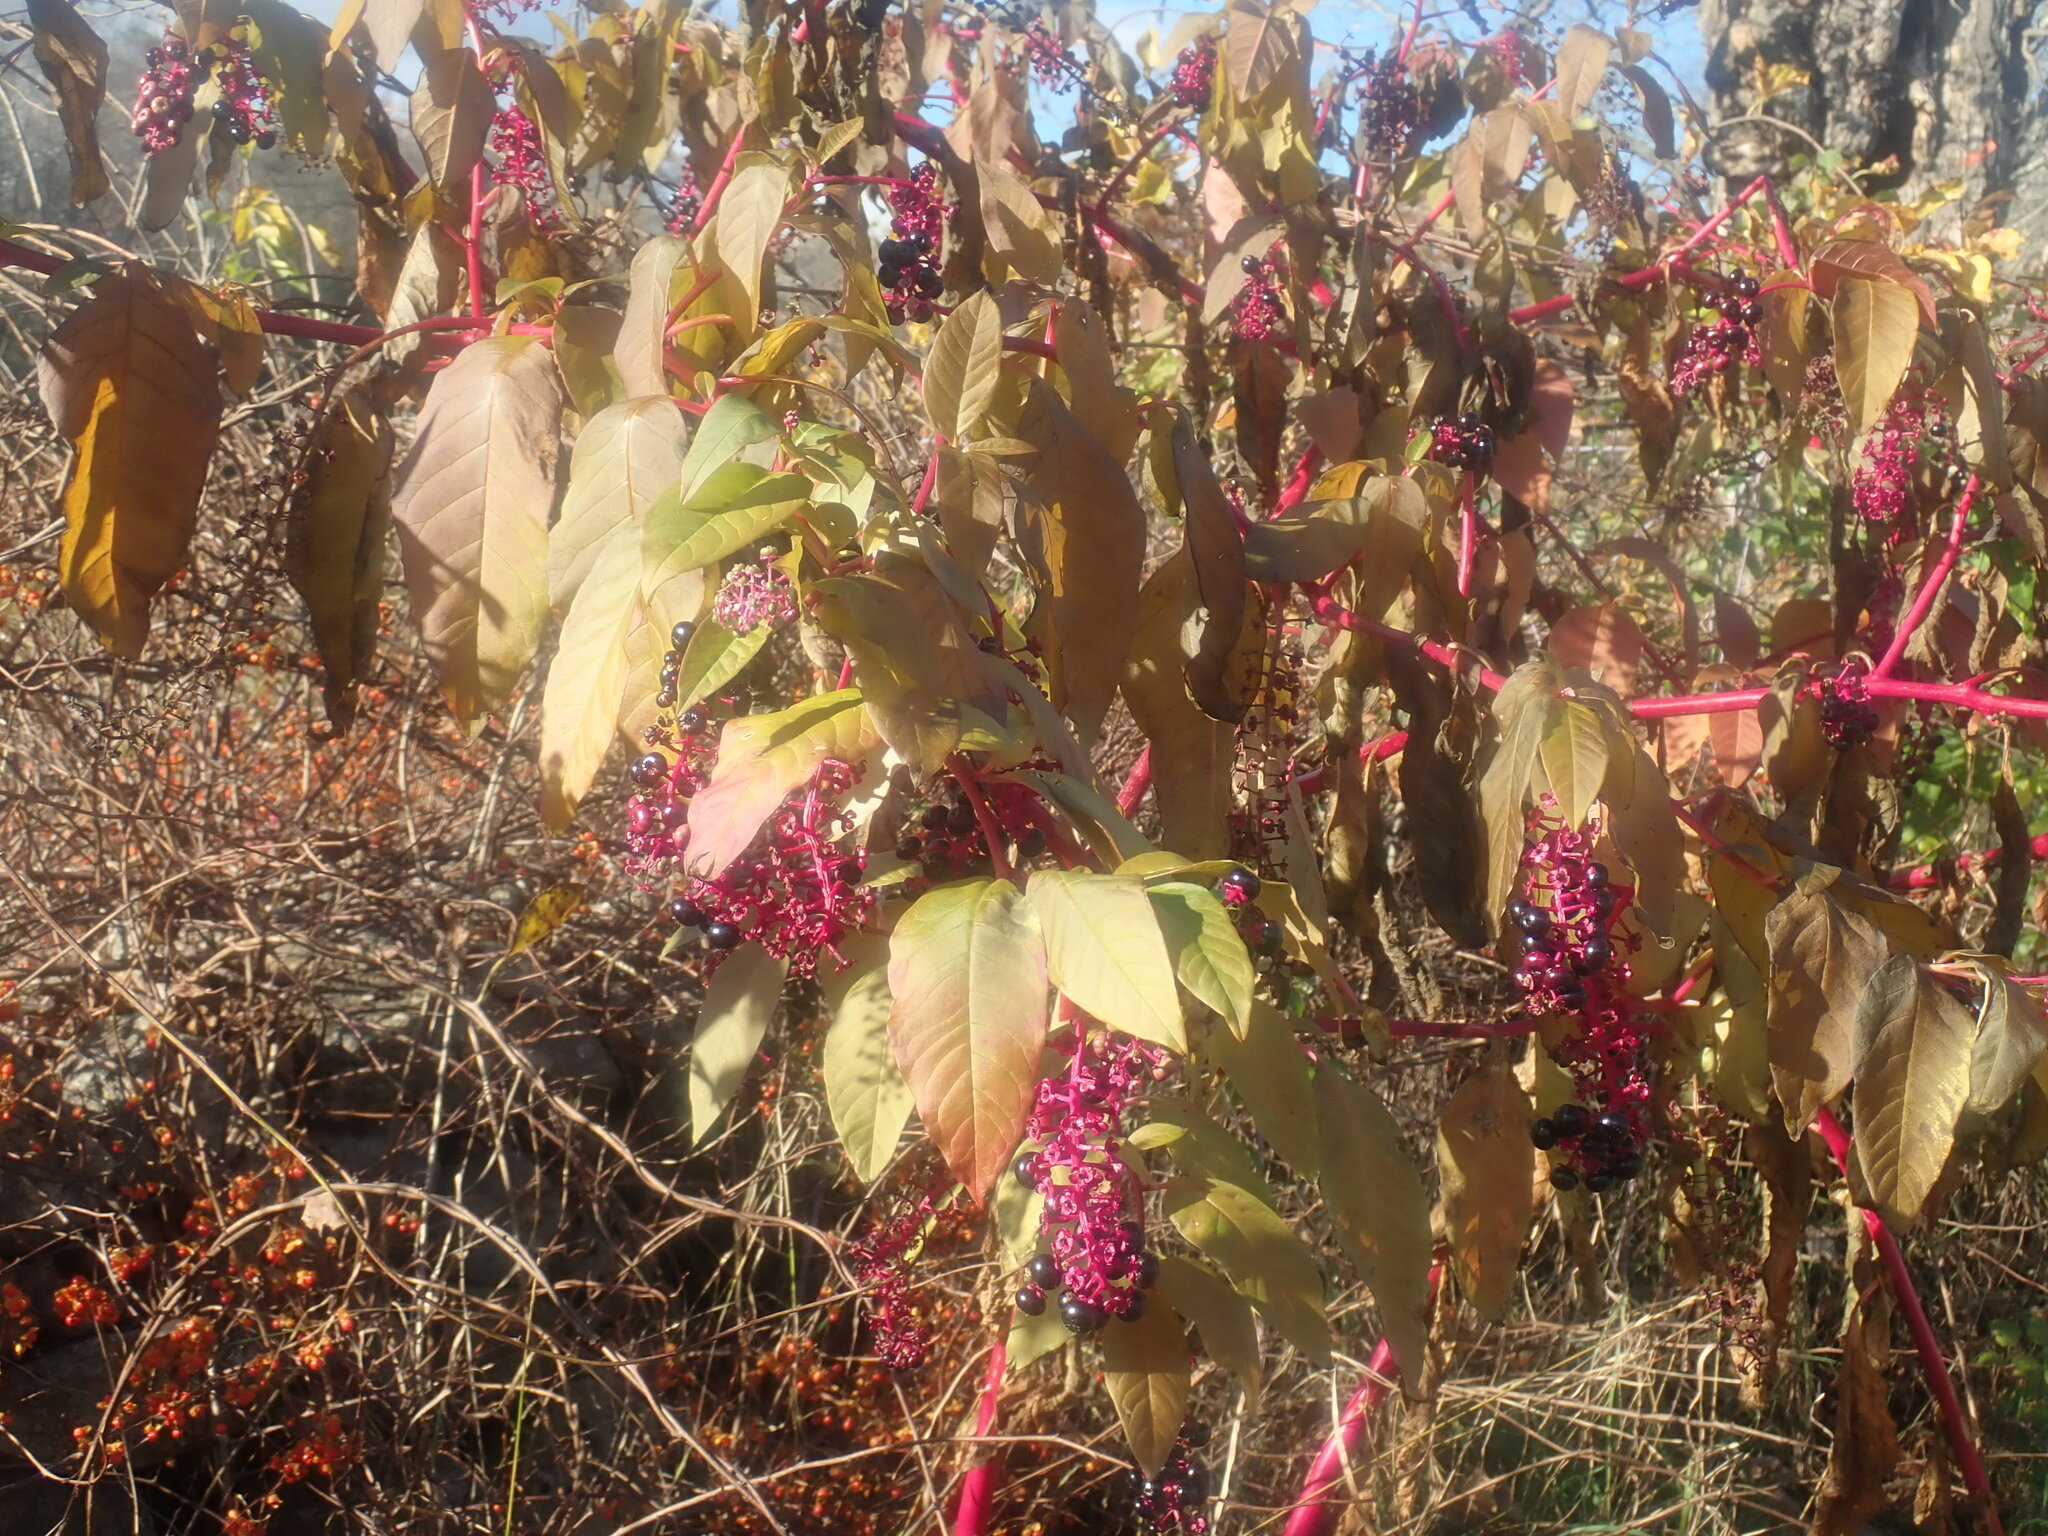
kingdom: Plantae
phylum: Tracheophyta
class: Magnoliopsida
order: Caryophyllales
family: Phytolaccaceae
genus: Phytolacca
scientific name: Phytolacca americana
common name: American pokeweed
